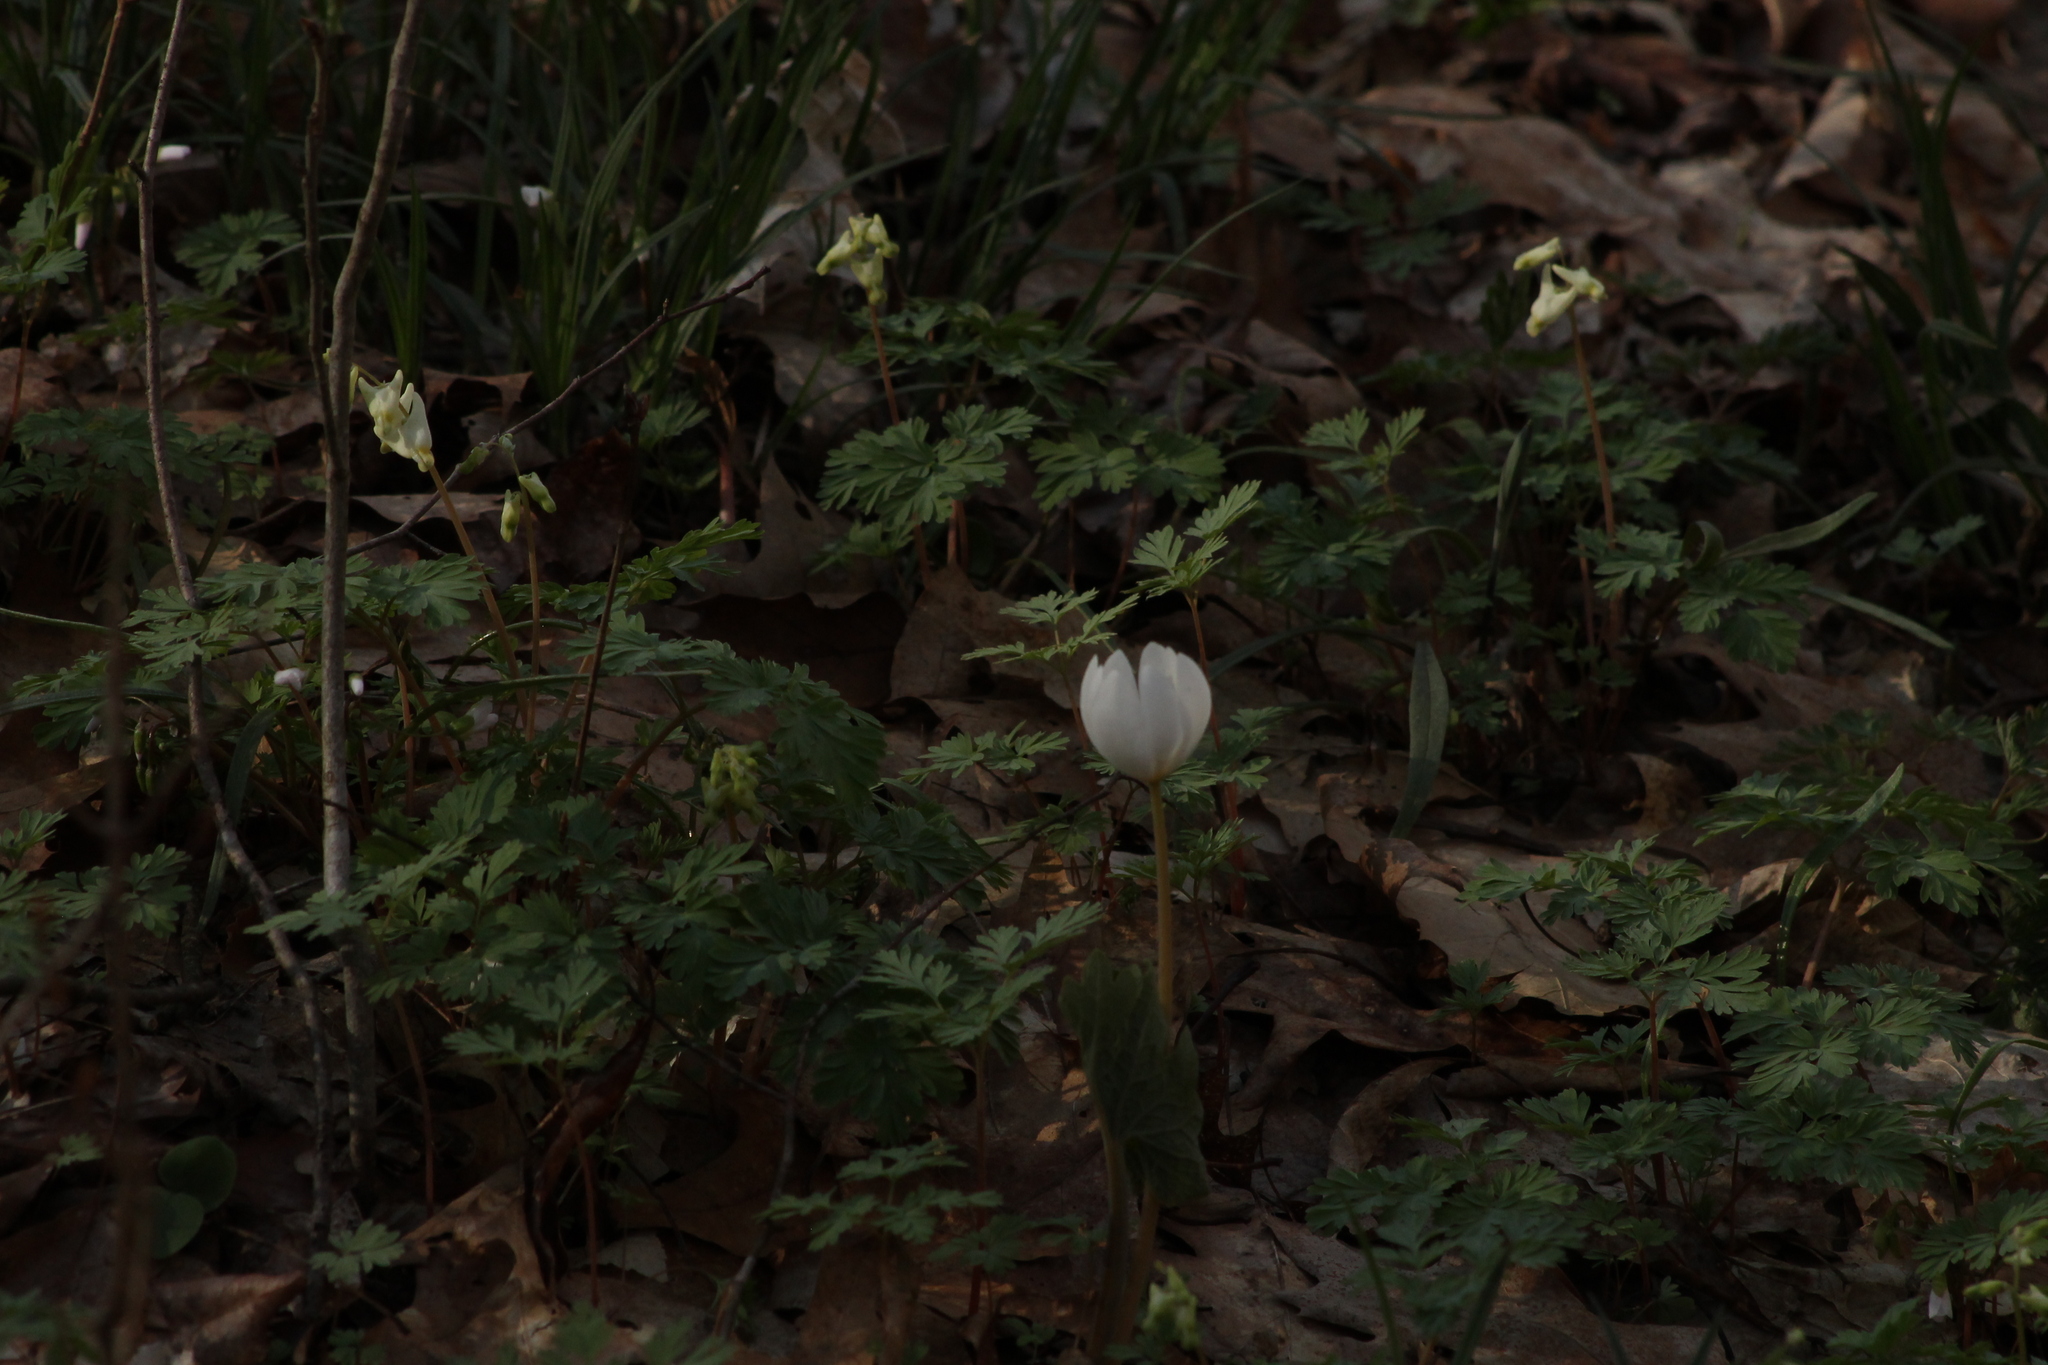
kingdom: Plantae
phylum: Tracheophyta
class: Magnoliopsida
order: Ranunculales
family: Papaveraceae
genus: Sanguinaria
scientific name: Sanguinaria canadensis
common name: Bloodroot
